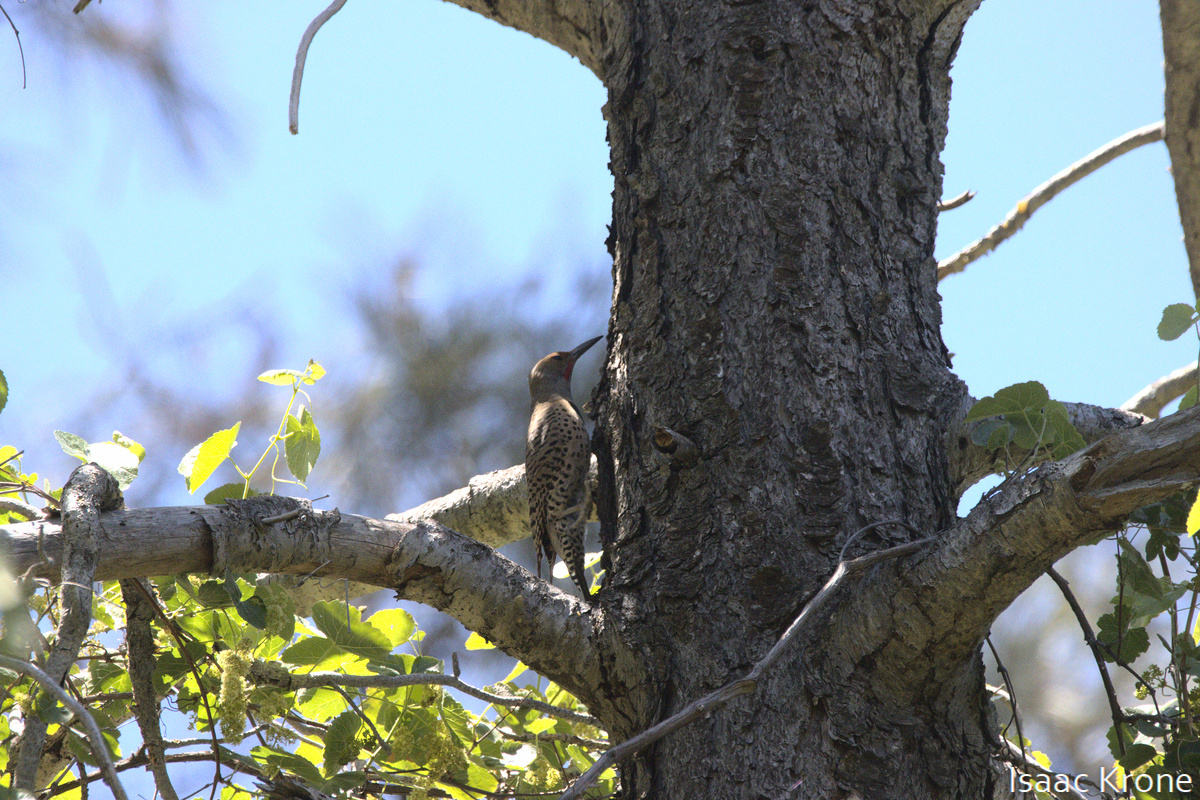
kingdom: Animalia
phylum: Chordata
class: Aves
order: Piciformes
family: Picidae
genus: Colaptes
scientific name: Colaptes auratus
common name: Northern flicker
